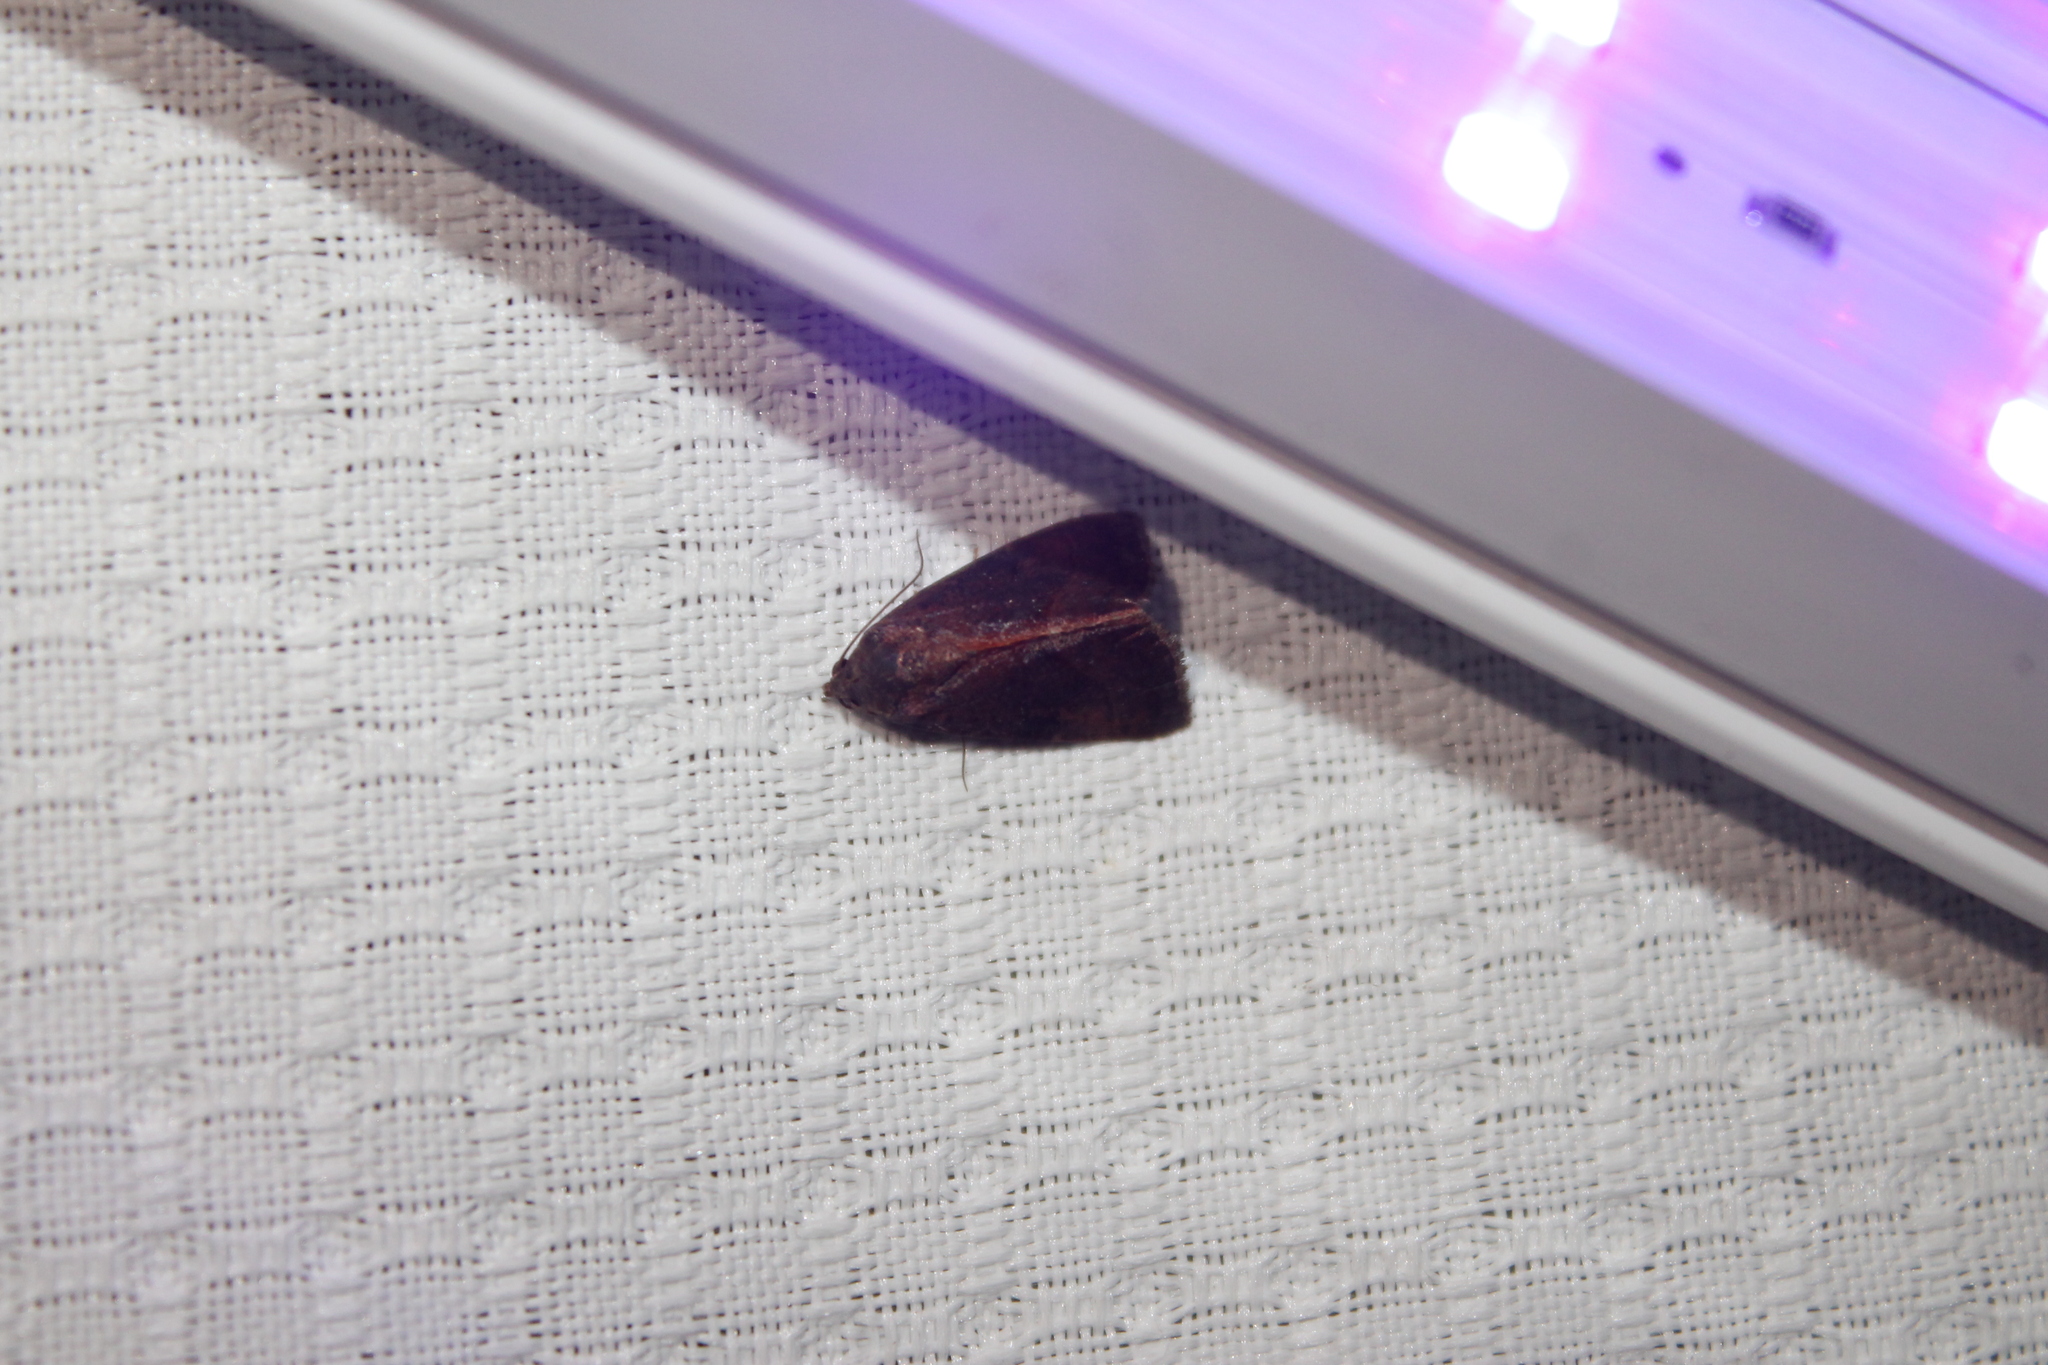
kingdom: Animalia
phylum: Arthropoda
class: Insecta
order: Lepidoptera
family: Noctuidae
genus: Galgula
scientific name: Galgula partita
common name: Wedgeling
